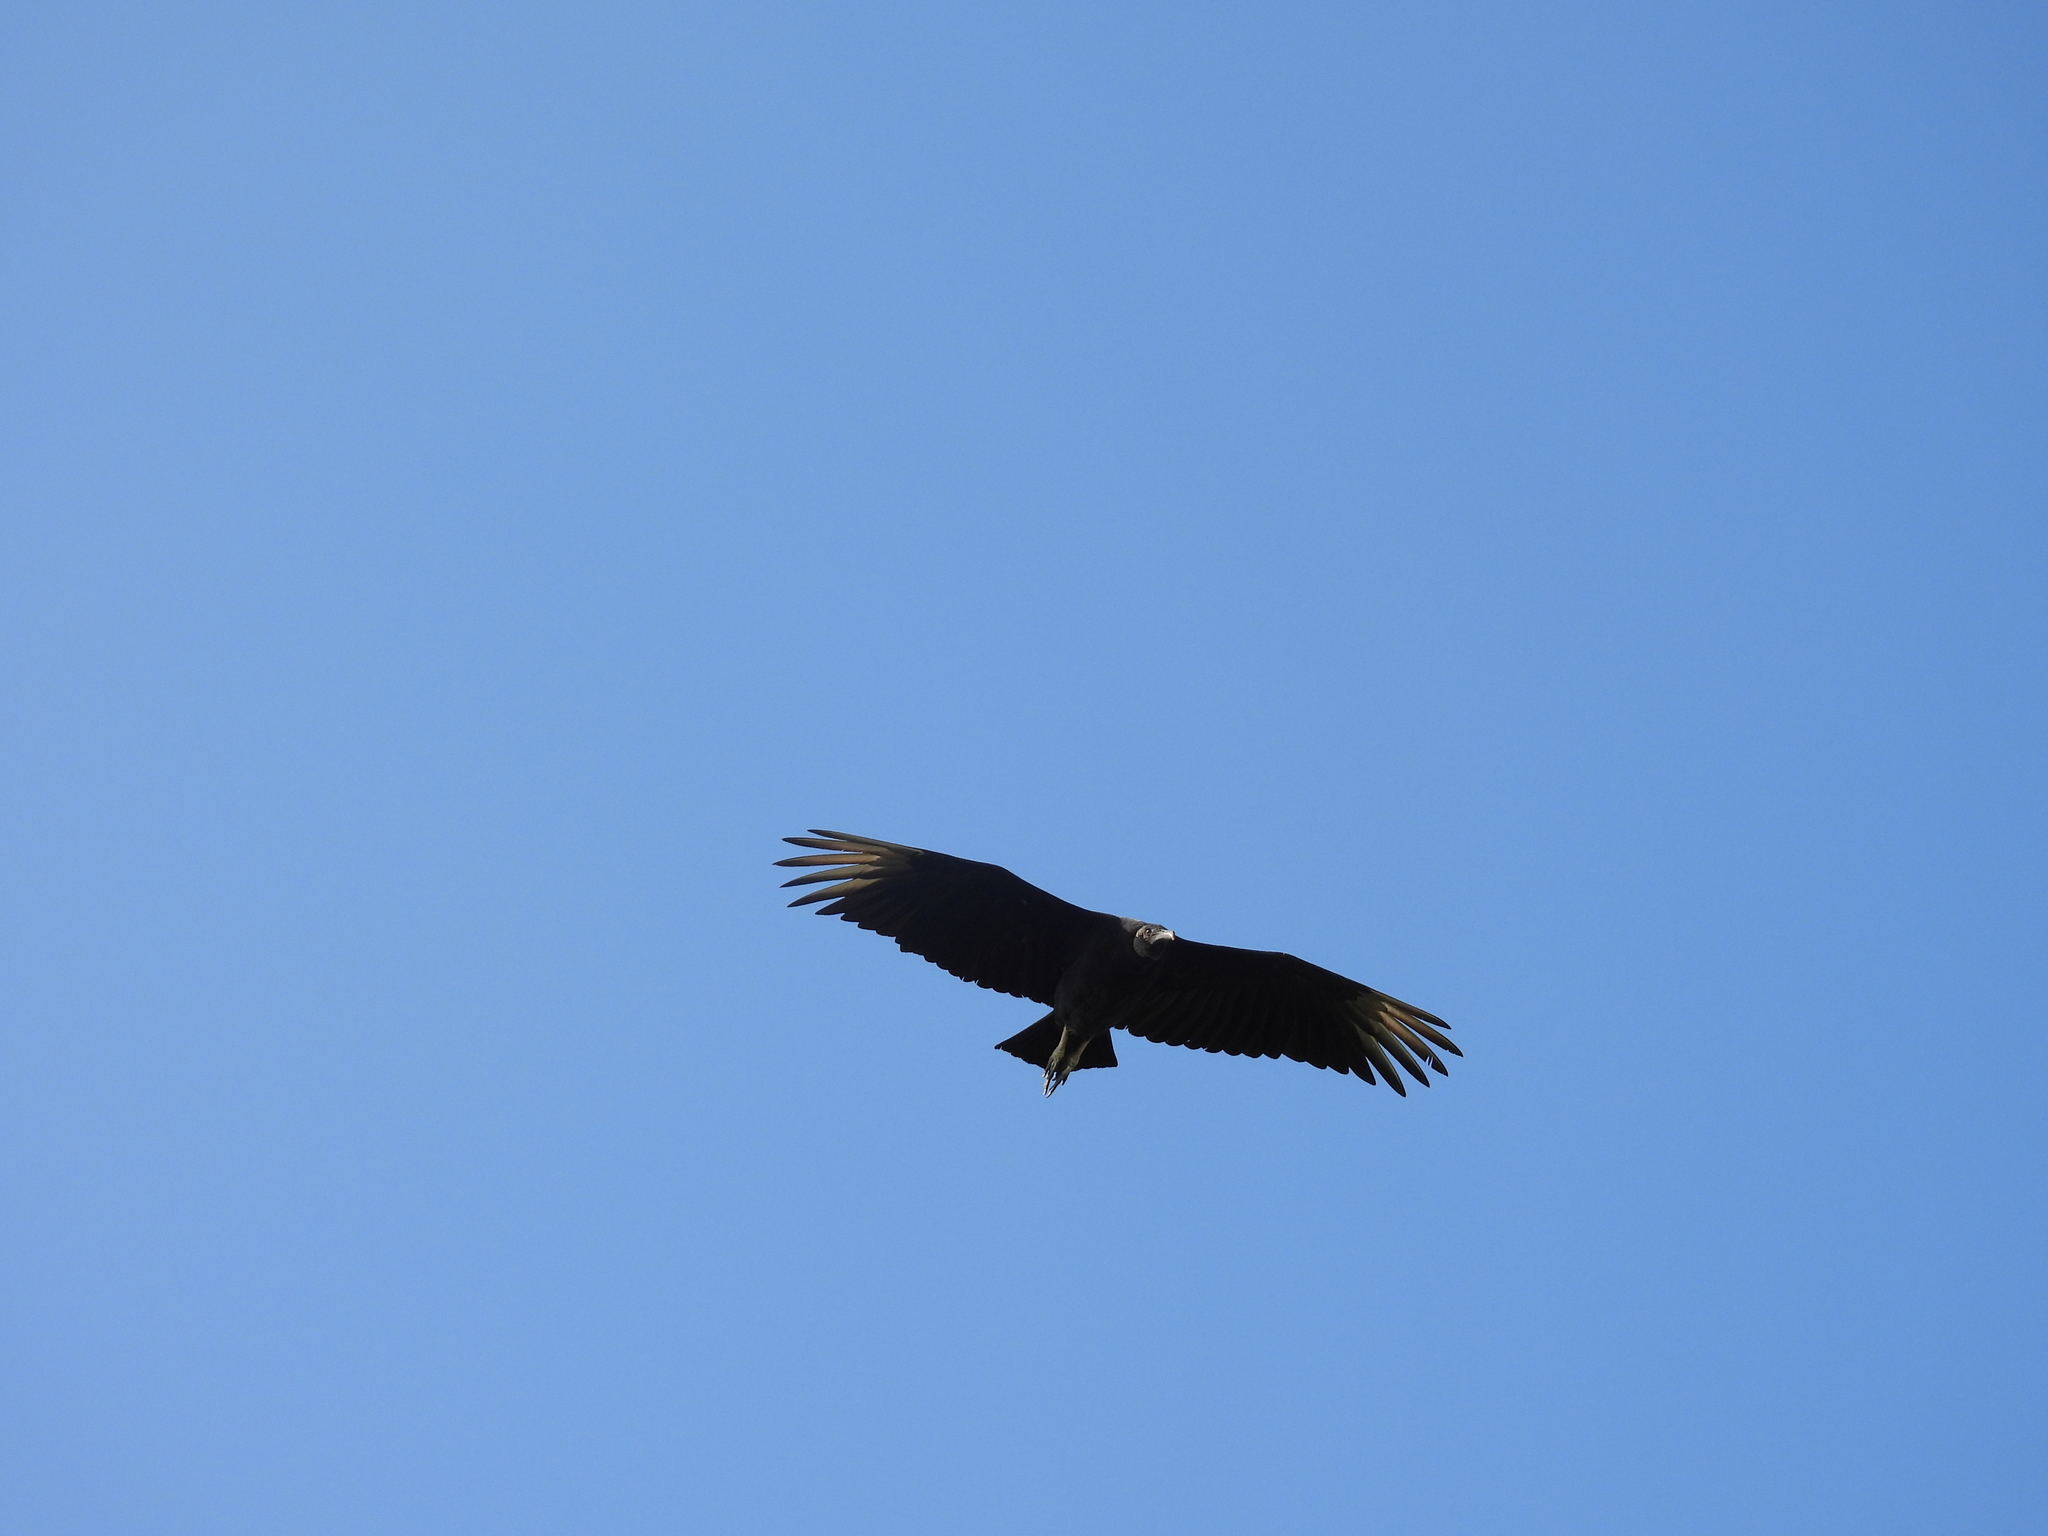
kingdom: Animalia
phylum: Chordata
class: Aves
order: Accipitriformes
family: Cathartidae
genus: Coragyps
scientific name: Coragyps atratus
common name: Black vulture
